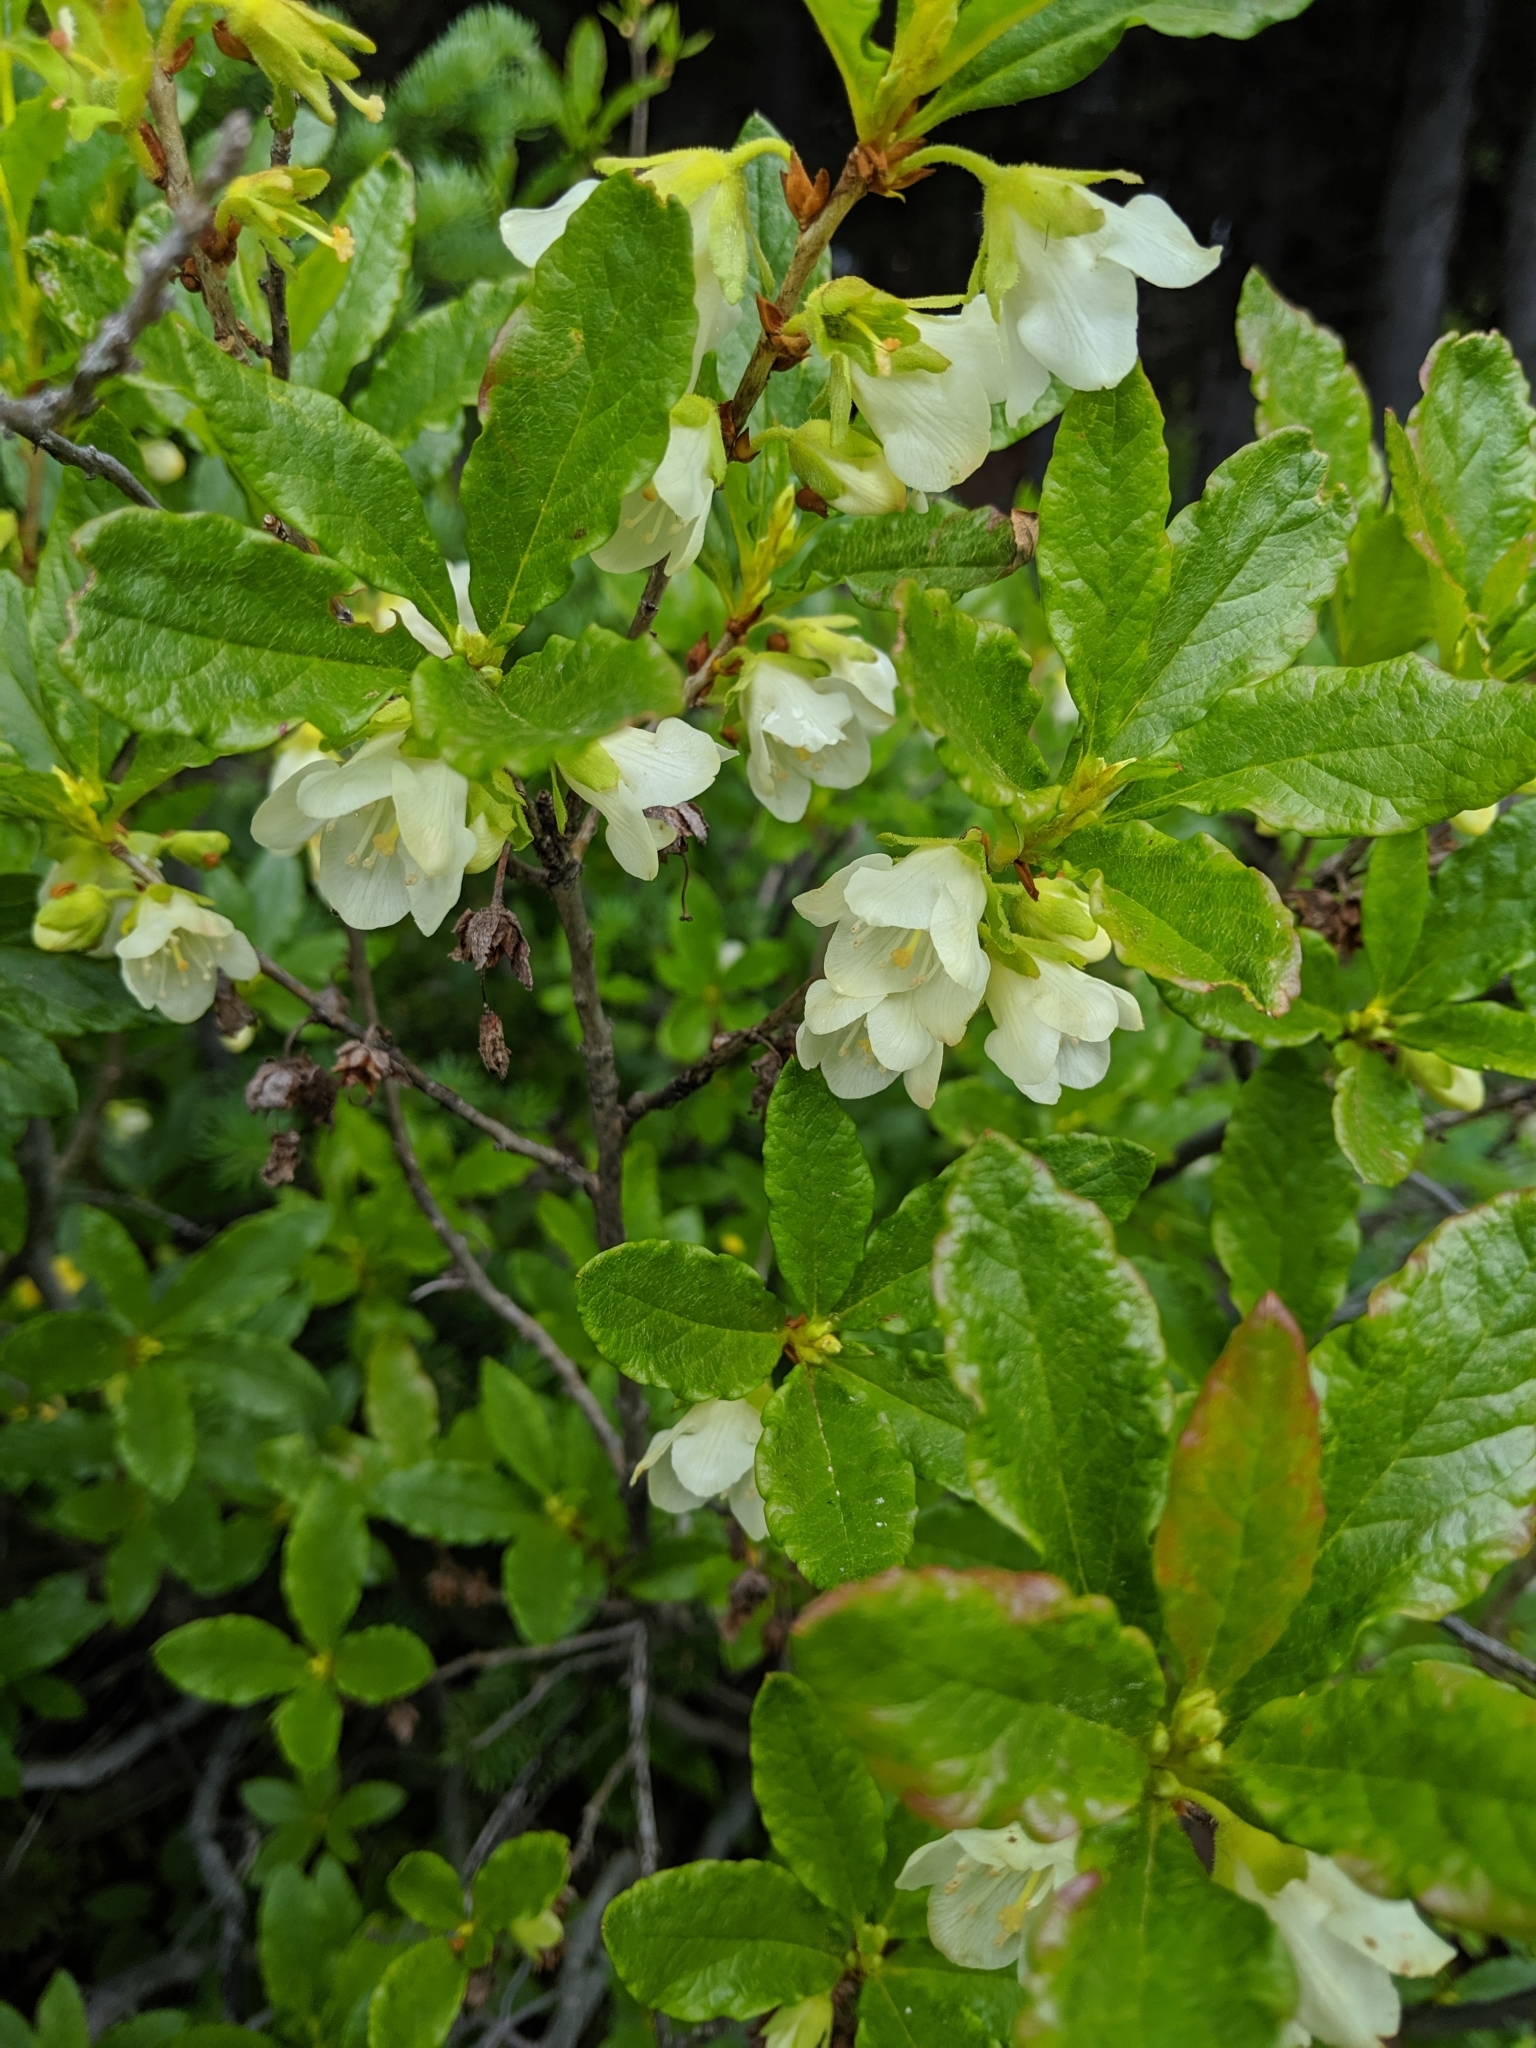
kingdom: Plantae
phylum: Tracheophyta
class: Magnoliopsida
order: Ericales
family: Ericaceae
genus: Rhododendron
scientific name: Rhododendron albiflorum
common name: White rhododendron
